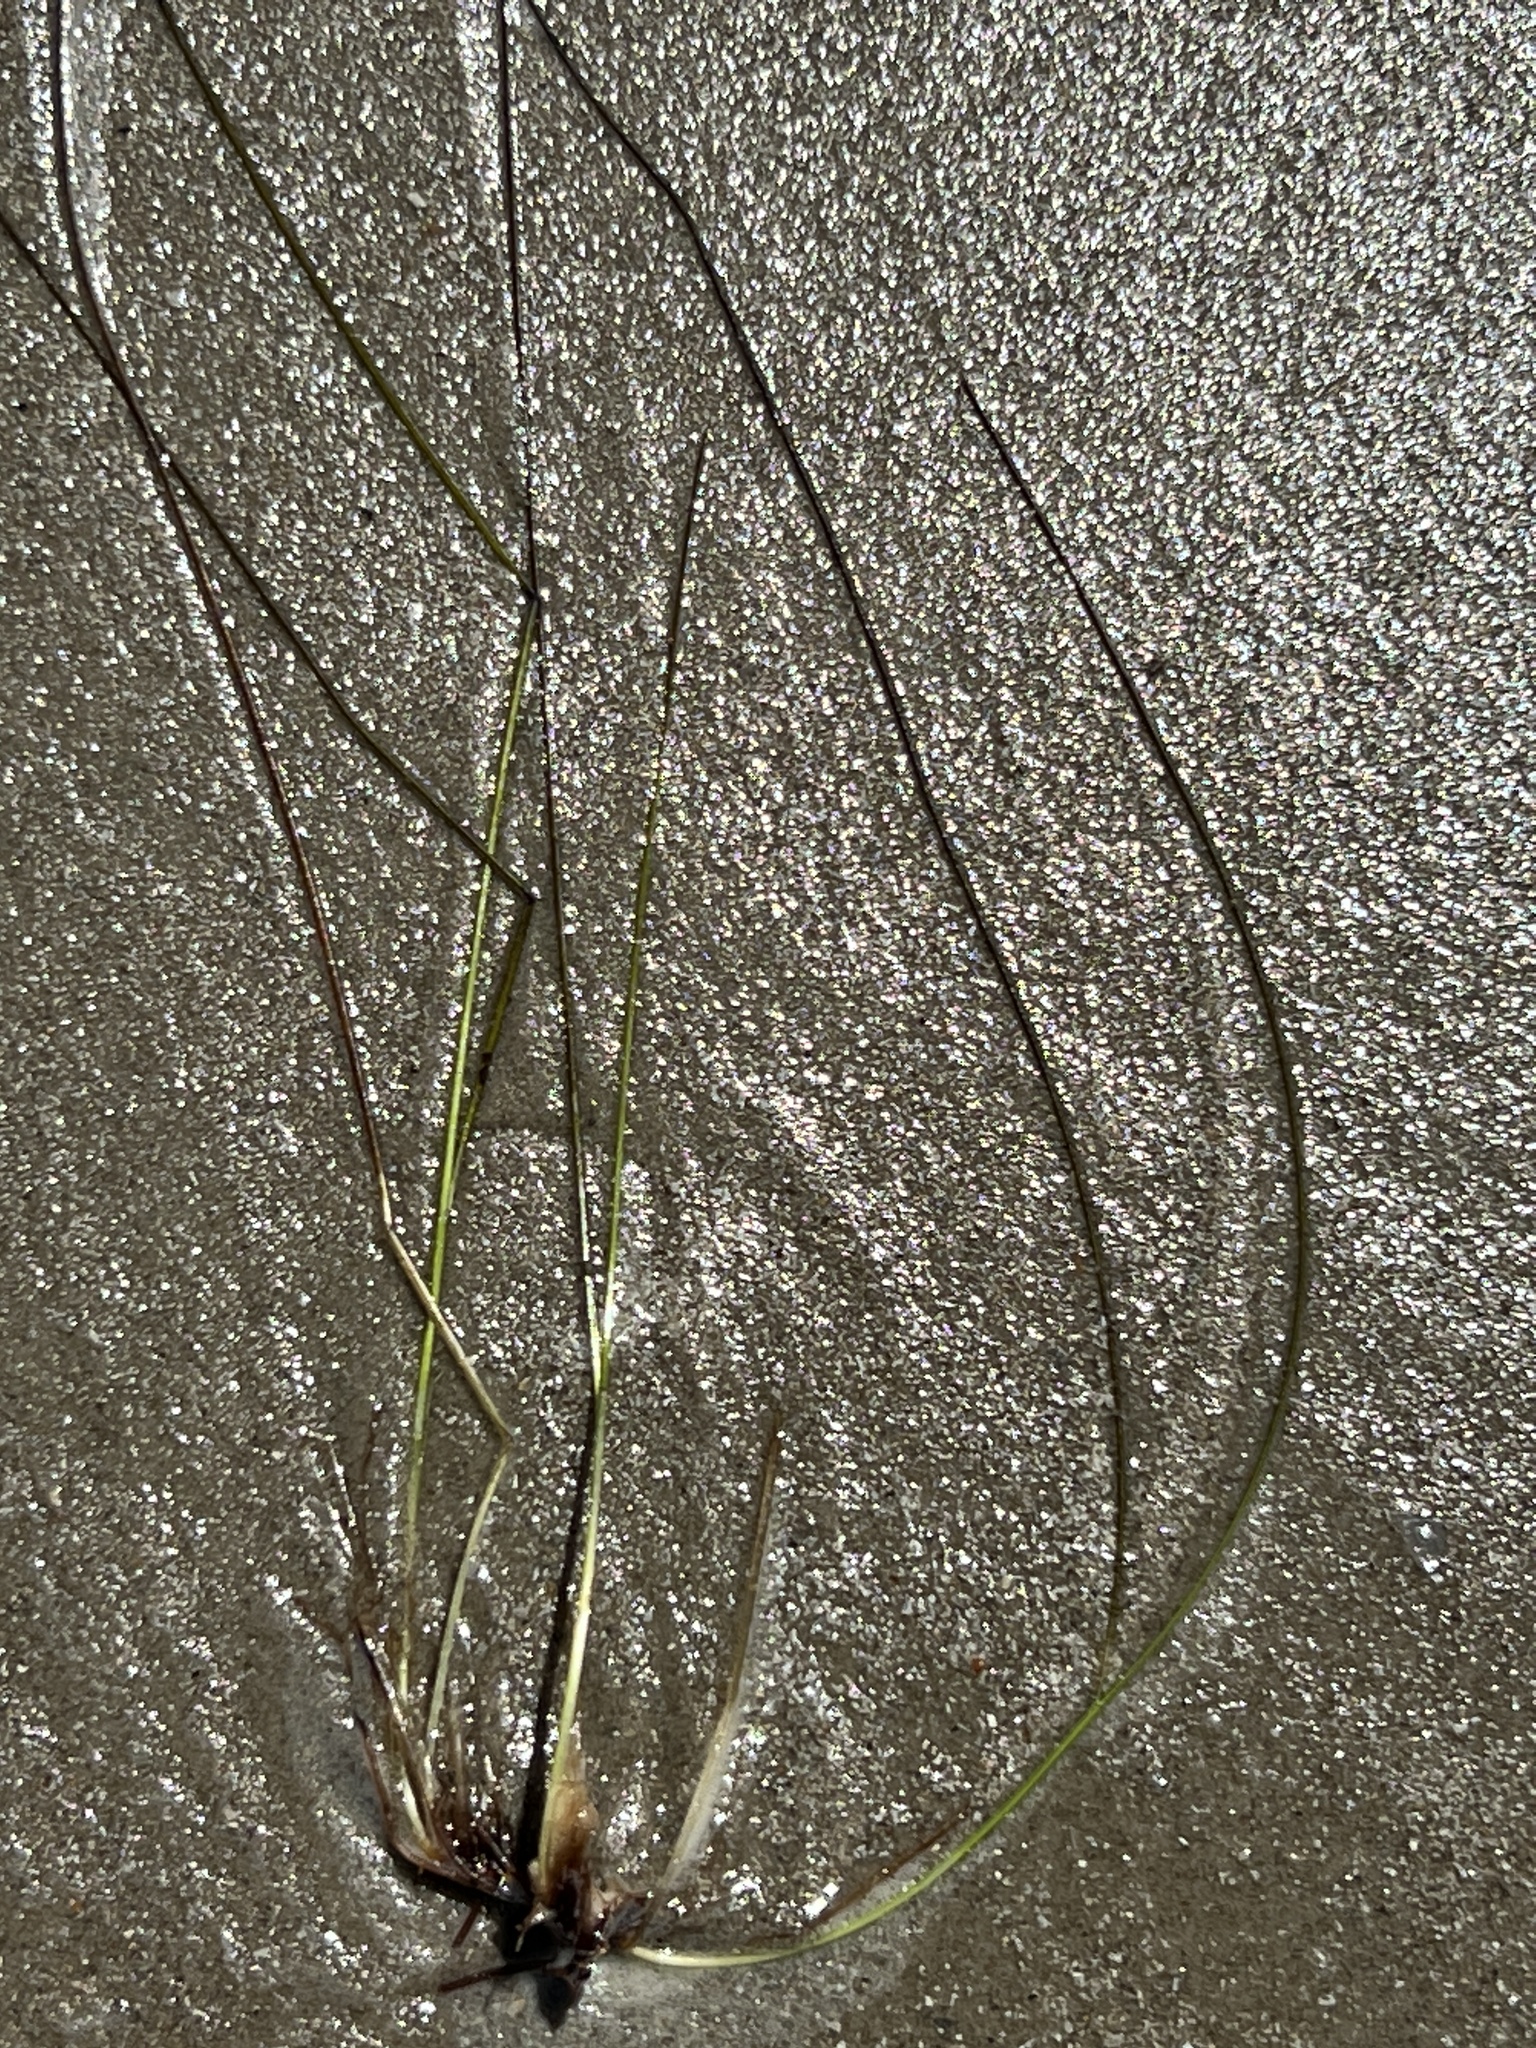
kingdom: Plantae
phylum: Tracheophyta
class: Liliopsida
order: Alismatales
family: Ruppiaceae
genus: Ruppia
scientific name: Ruppia maritima
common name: Beaked tasselweed
